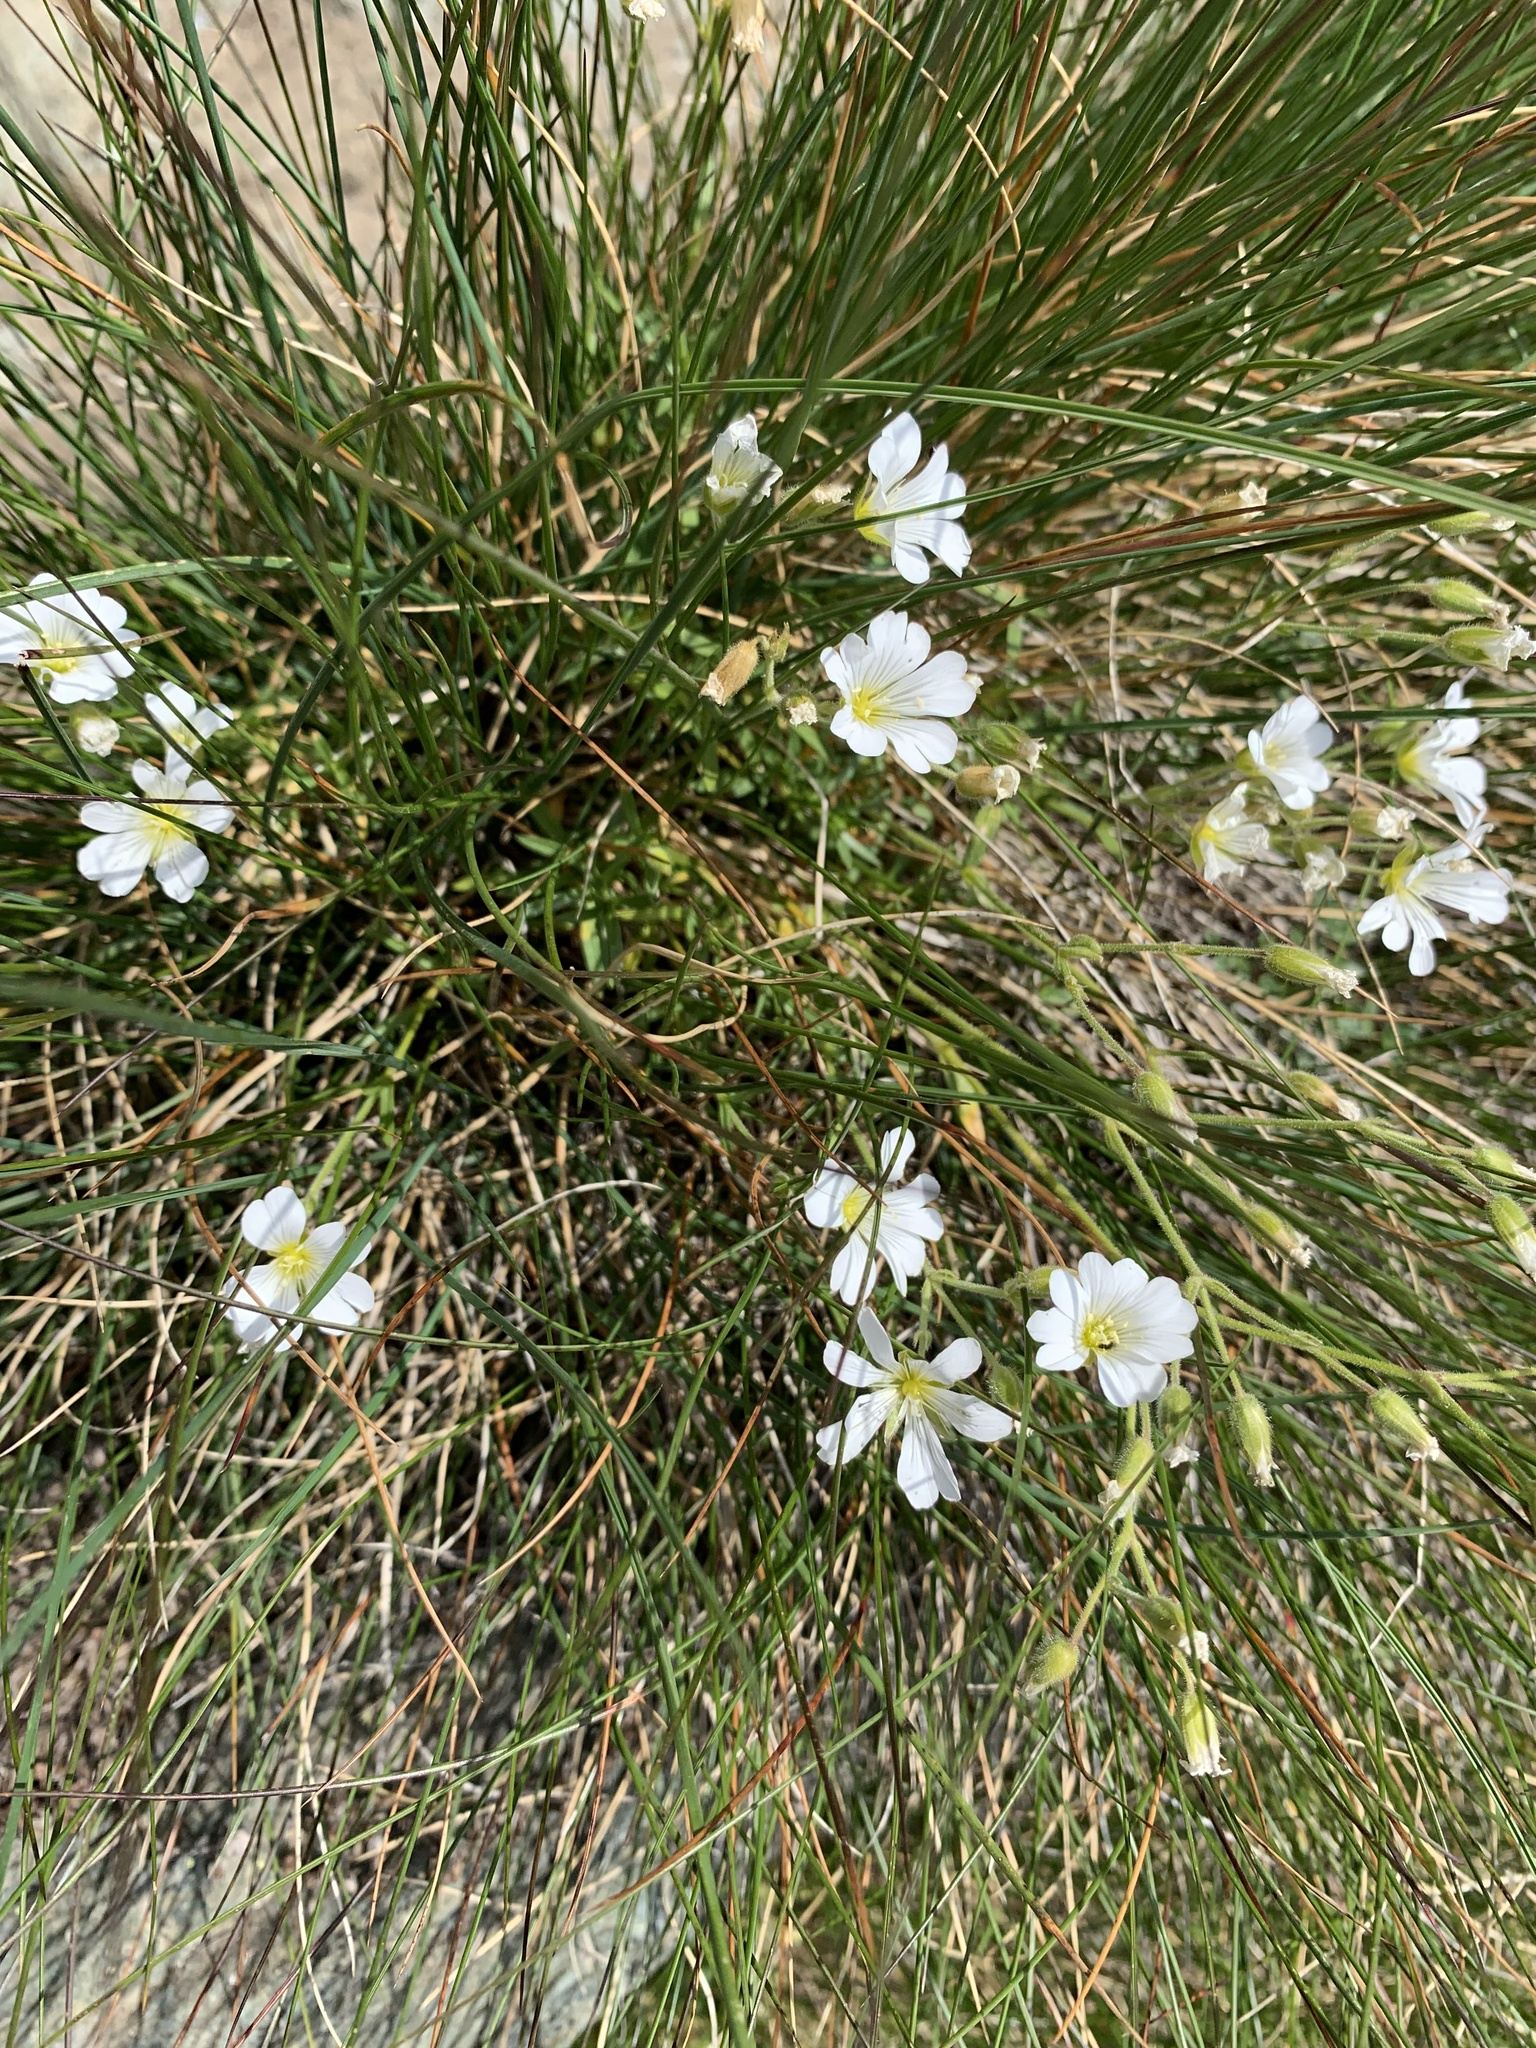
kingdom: Plantae
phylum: Tracheophyta
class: Magnoliopsida
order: Caryophyllales
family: Caryophyllaceae
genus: Cerastium
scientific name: Cerastium arvense
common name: Field mouse-ear
